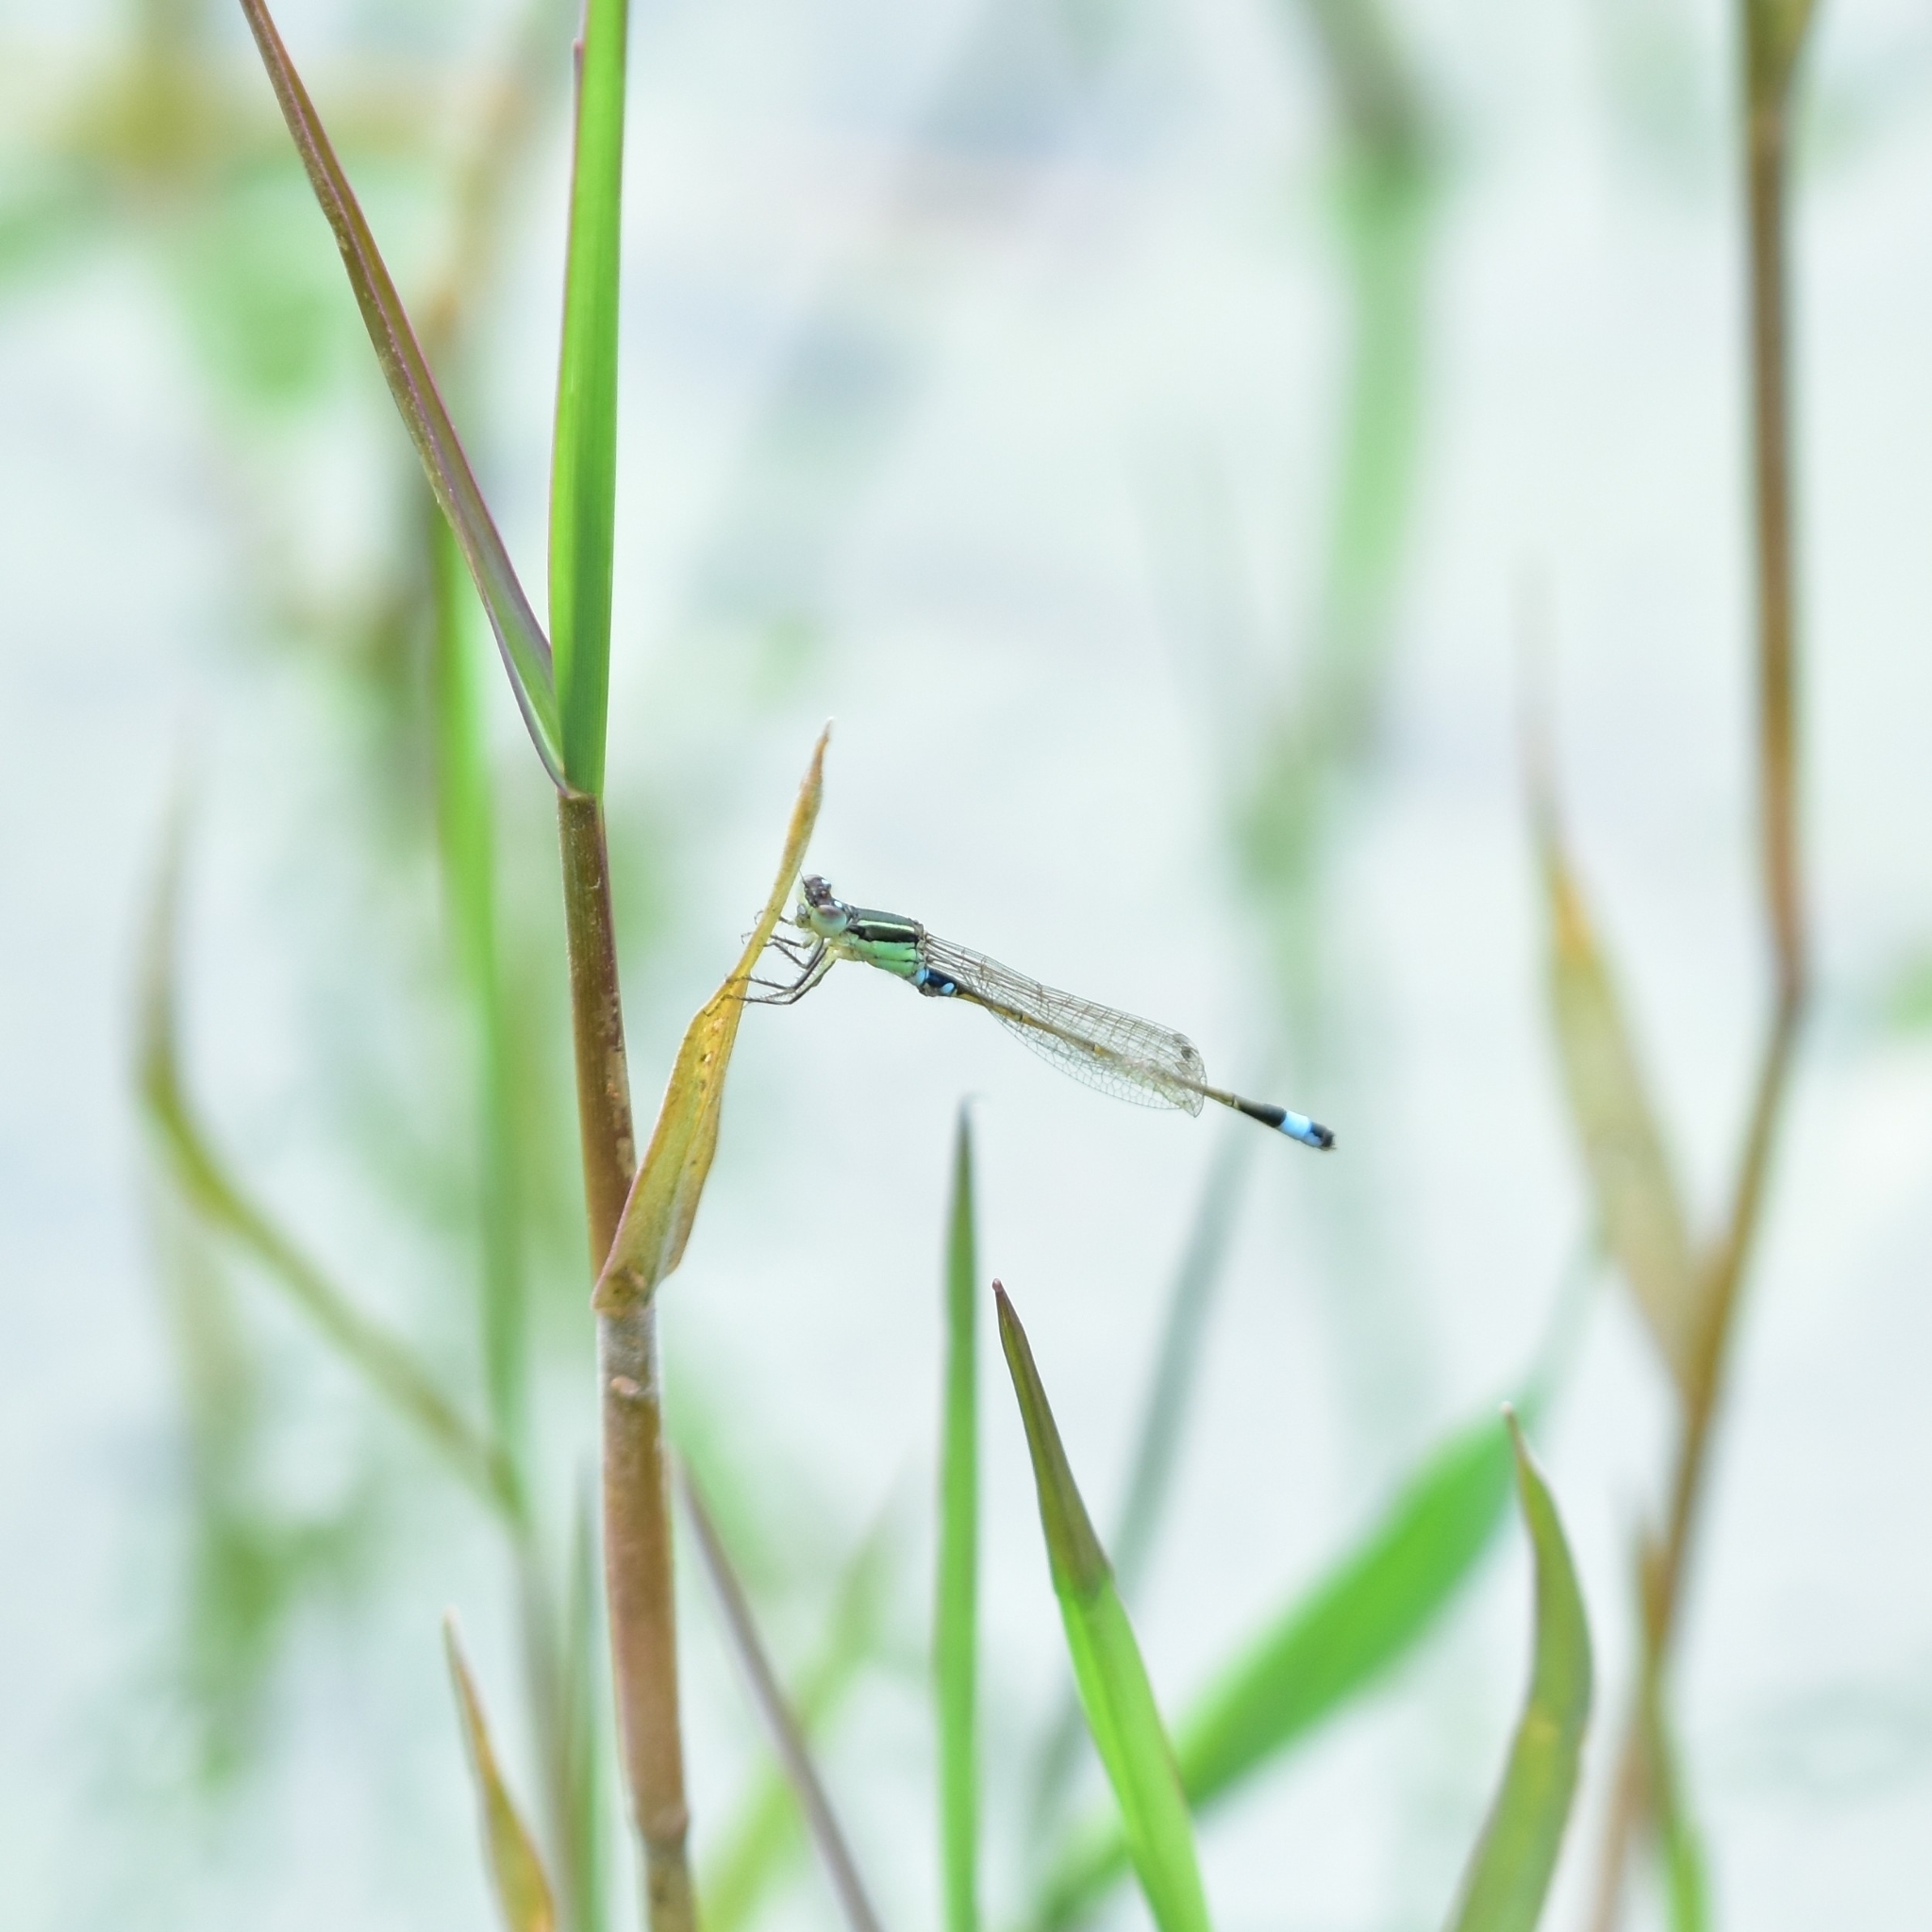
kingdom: Animalia
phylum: Arthropoda
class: Insecta
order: Odonata
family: Coenagrionidae
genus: Ischnura
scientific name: Ischnura senegalensis
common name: Tropical bluetail
